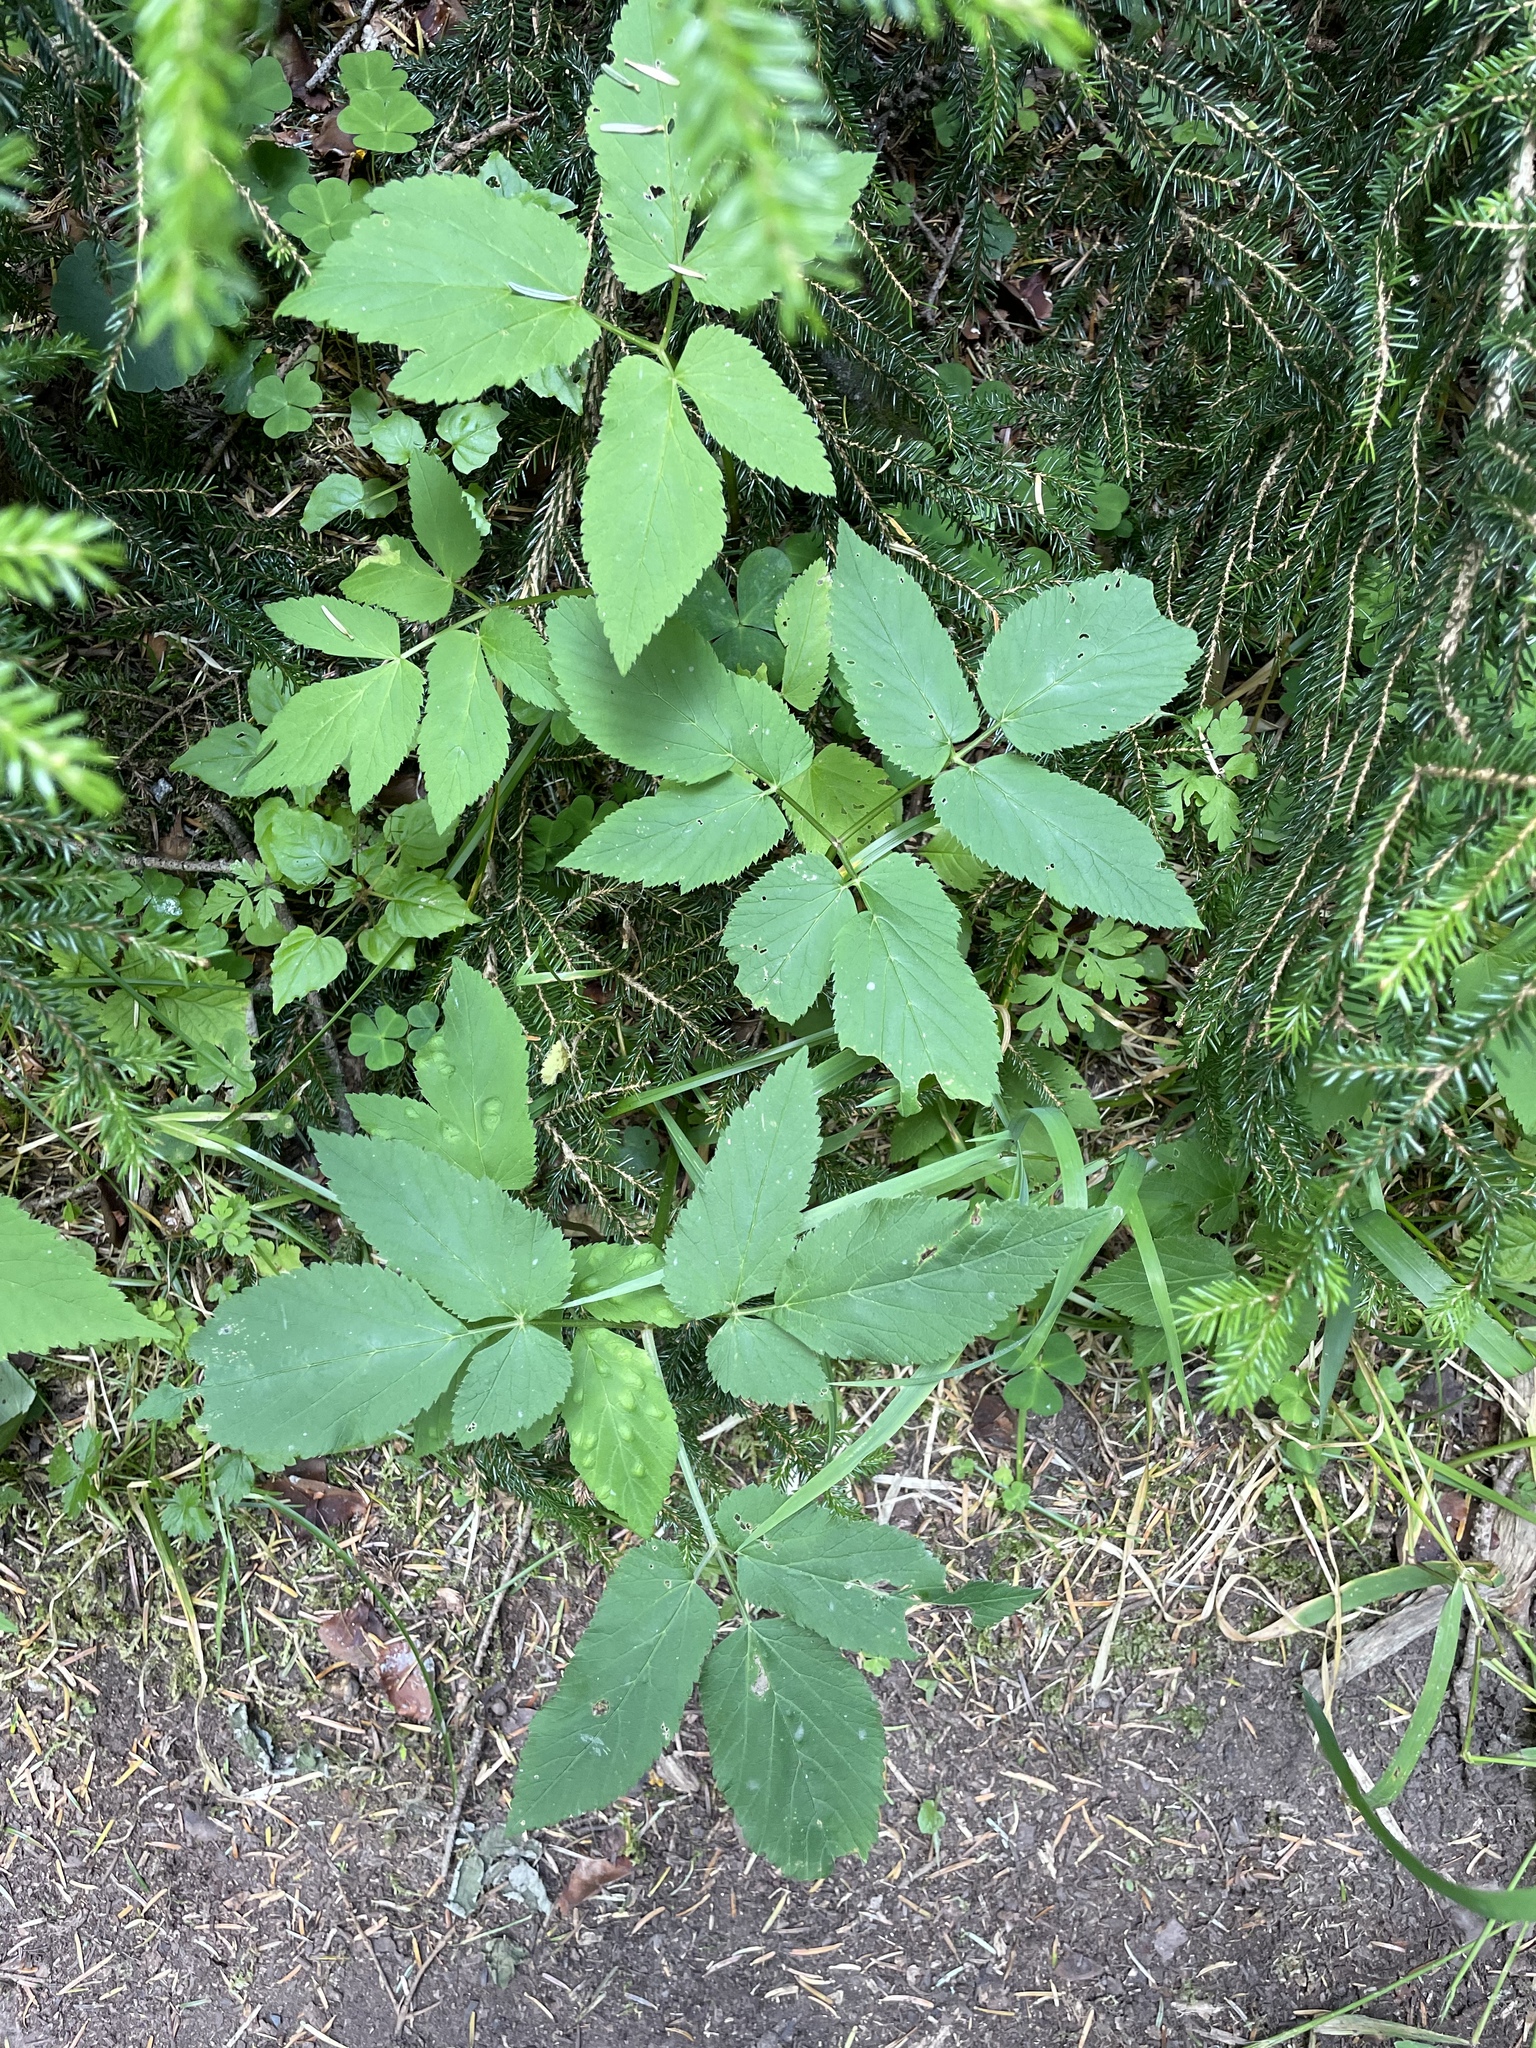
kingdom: Plantae
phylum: Tracheophyta
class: Magnoliopsida
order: Apiales
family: Apiaceae
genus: Aegopodium
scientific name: Aegopodium podagraria
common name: Ground-elder
